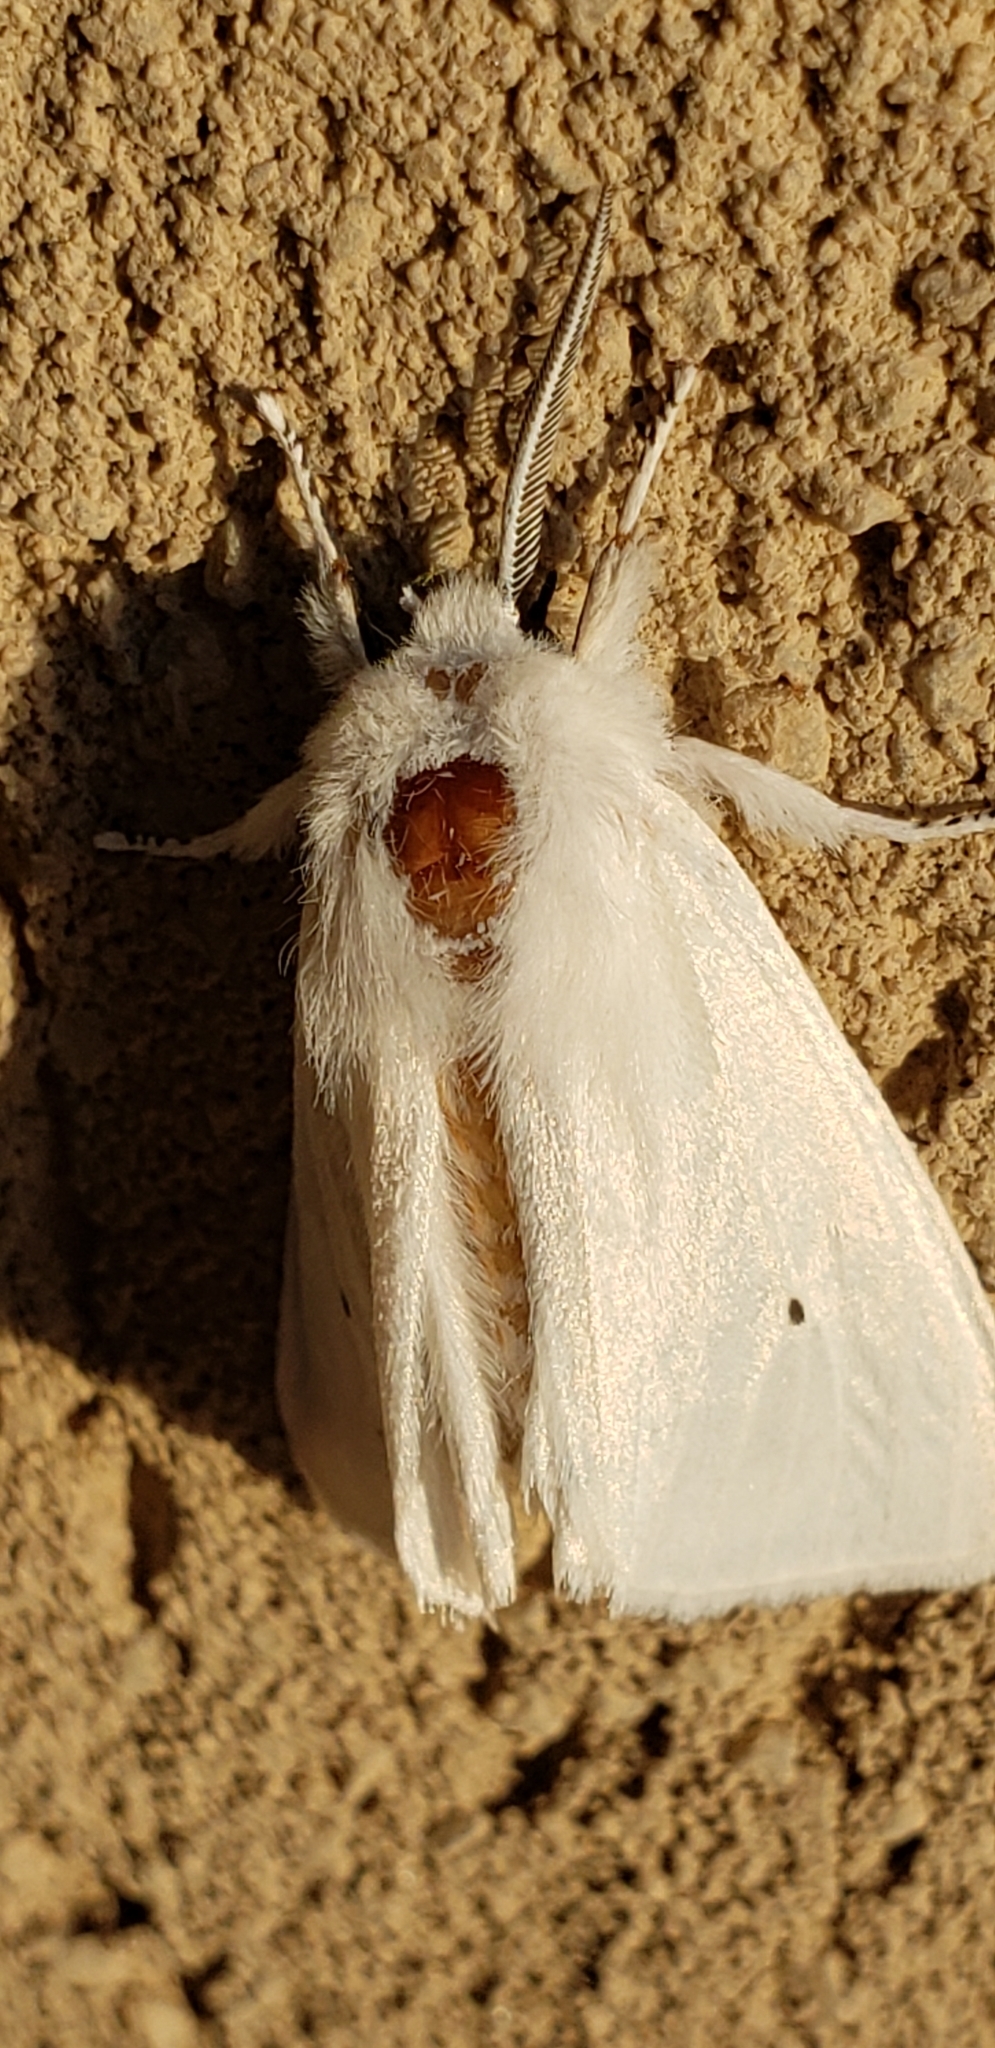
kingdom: Animalia
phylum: Arthropoda
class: Insecta
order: Lepidoptera
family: Erebidae
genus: Spilosoma
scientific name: Spilosoma virginica
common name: Virginia tiger moth
